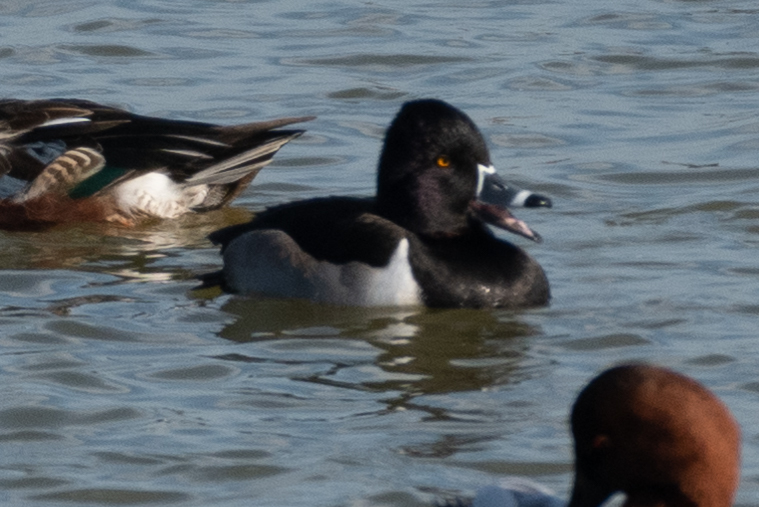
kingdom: Animalia
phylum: Chordata
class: Aves
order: Anseriformes
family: Anatidae
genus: Aythya
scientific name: Aythya collaris
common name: Ring-necked duck
